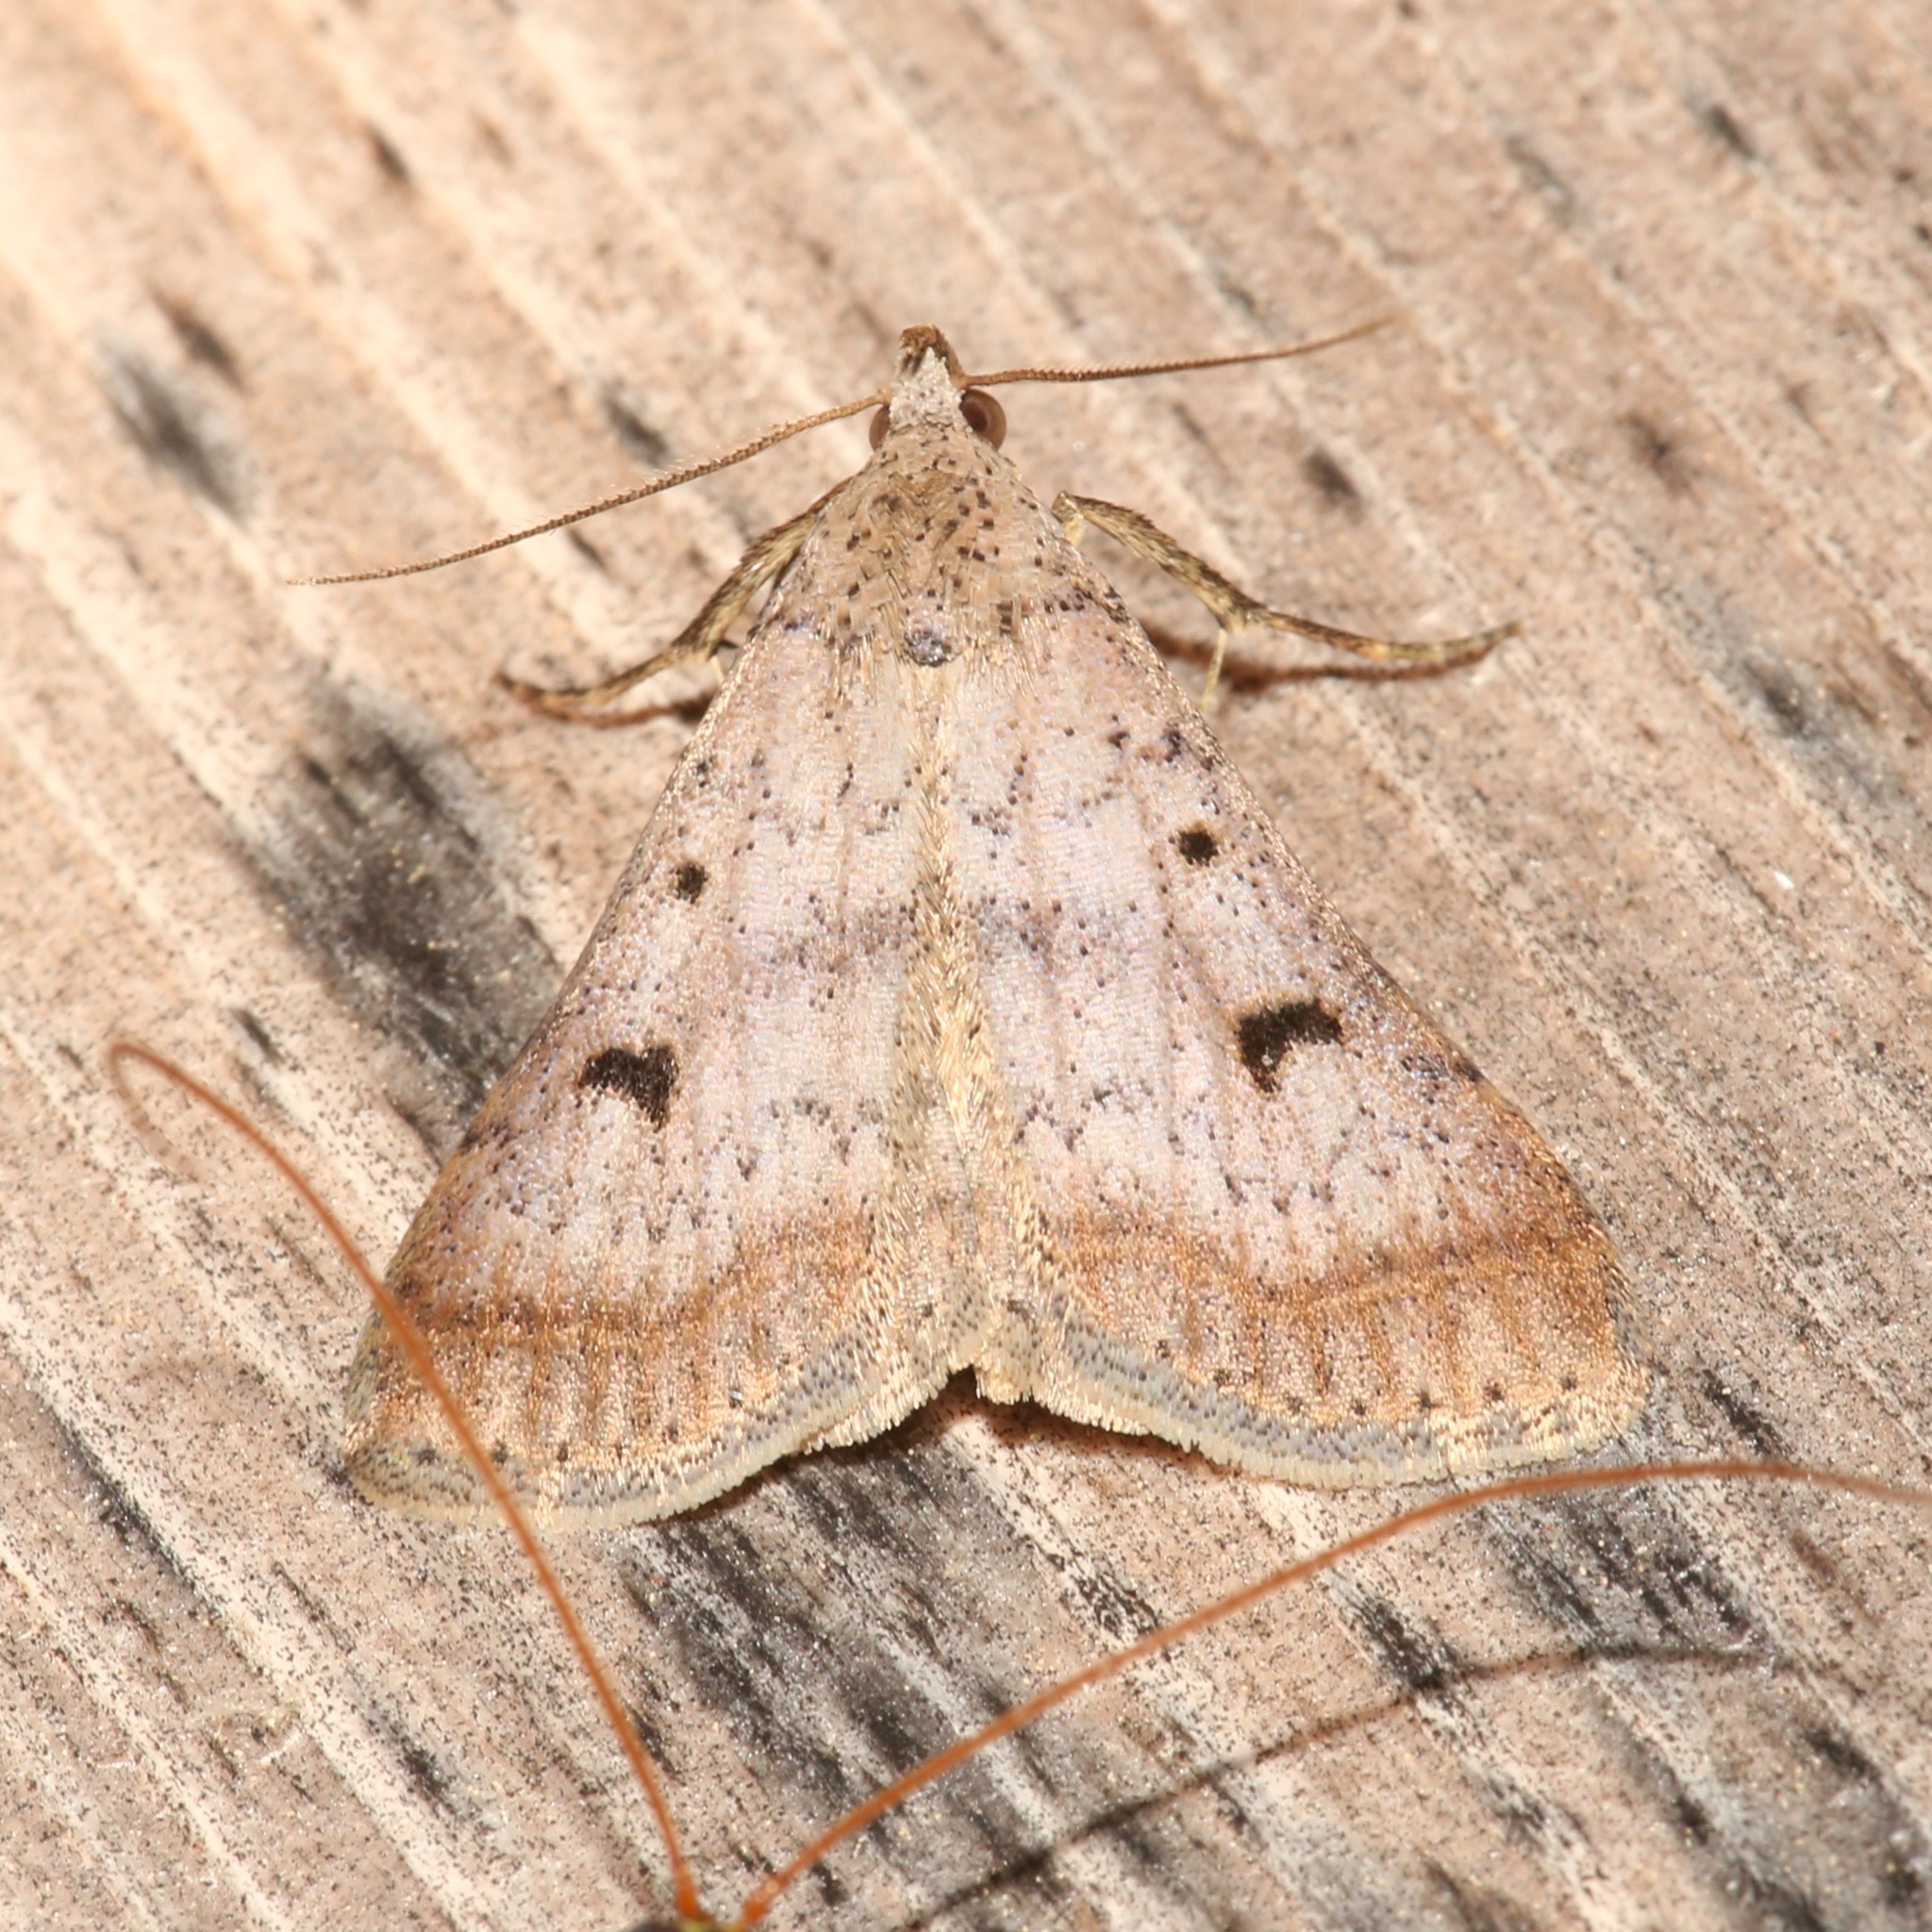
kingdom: Animalia
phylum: Arthropoda
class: Insecta
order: Lepidoptera
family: Erebidae
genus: Bleptina
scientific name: Bleptina caradrinalis
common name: Bent-winged owlet
